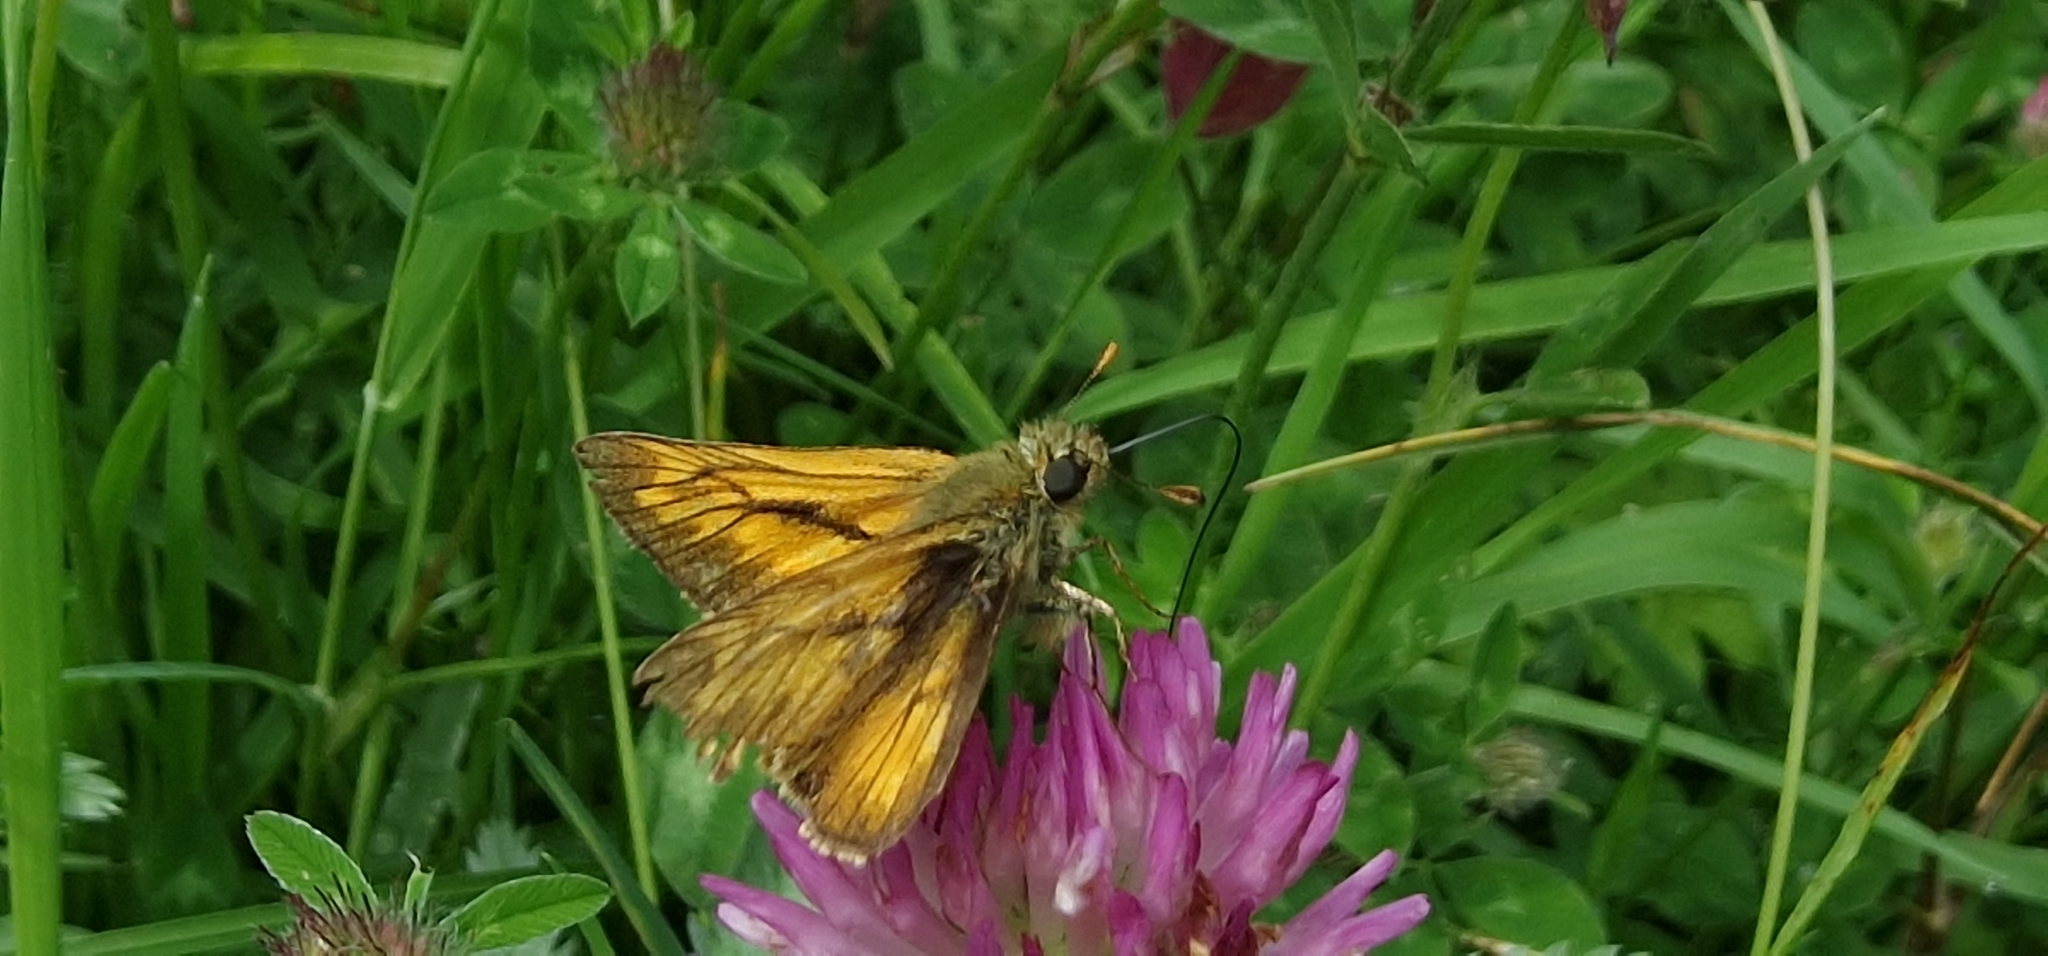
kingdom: Animalia
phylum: Arthropoda
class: Insecta
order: Lepidoptera
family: Hesperiidae
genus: Ochlodes
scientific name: Ochlodes venata
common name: Large skipper
